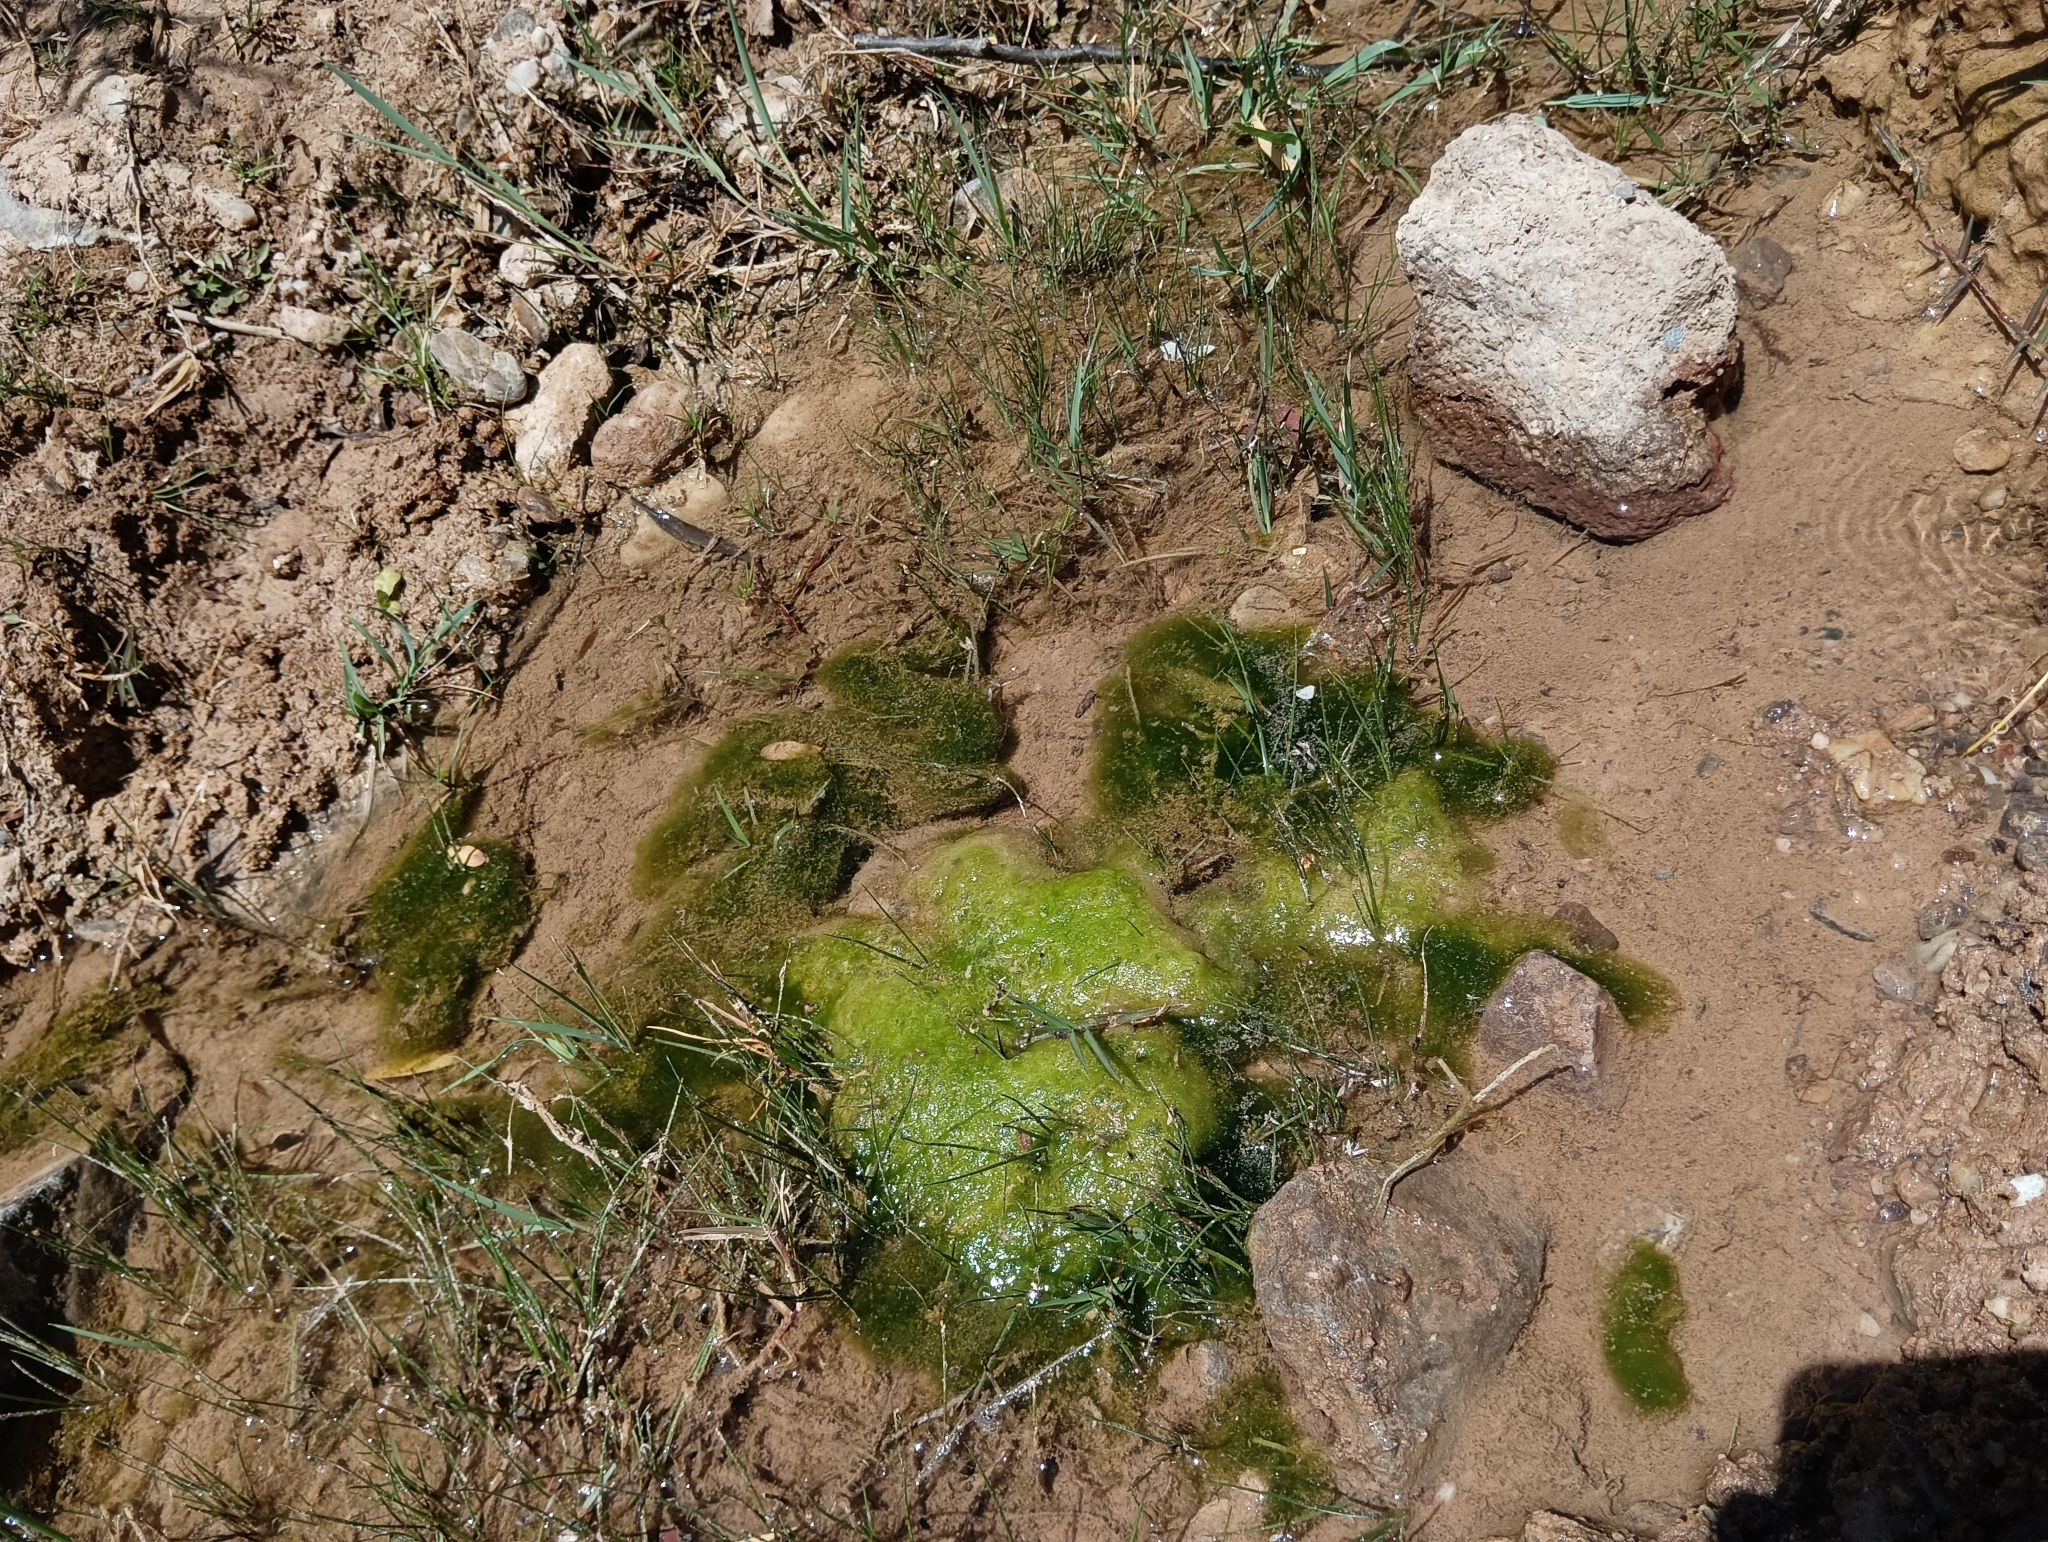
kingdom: Chromista
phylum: Ochrophyta
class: Xanthophyceae
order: Vaucheriales
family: Vaucheriaceae
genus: Vaucheria
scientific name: Vaucheria
